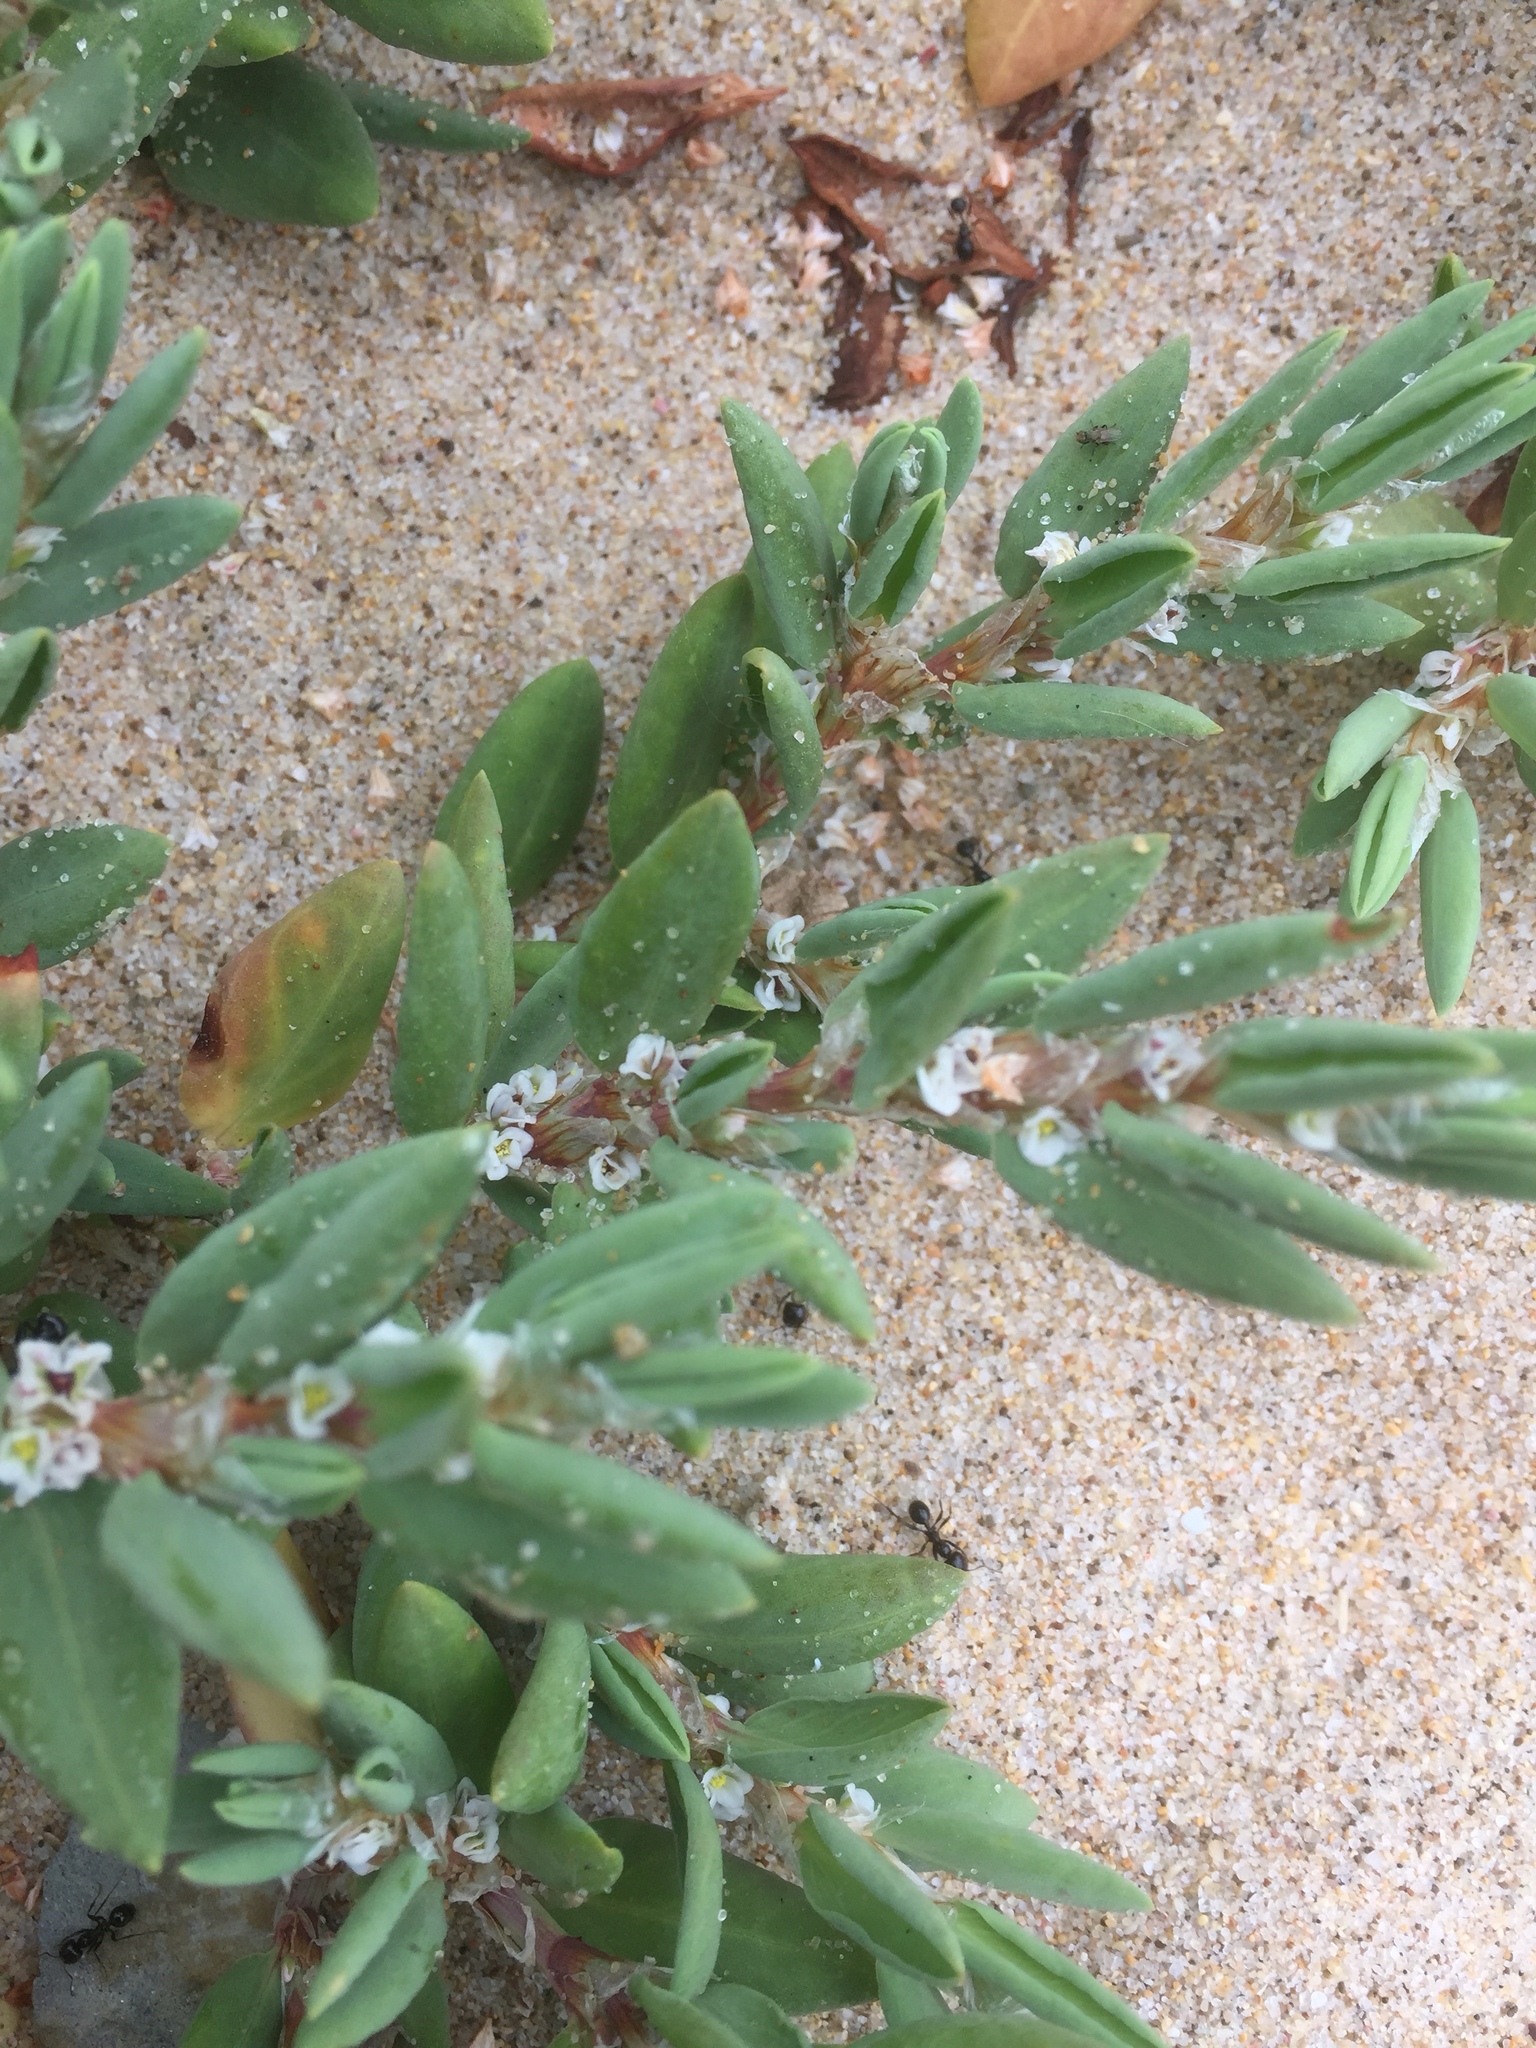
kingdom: Plantae
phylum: Tracheophyta
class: Magnoliopsida
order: Caryophyllales
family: Polygonaceae
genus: Polygonum
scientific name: Polygonum maritimum
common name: Sea knotgrass
